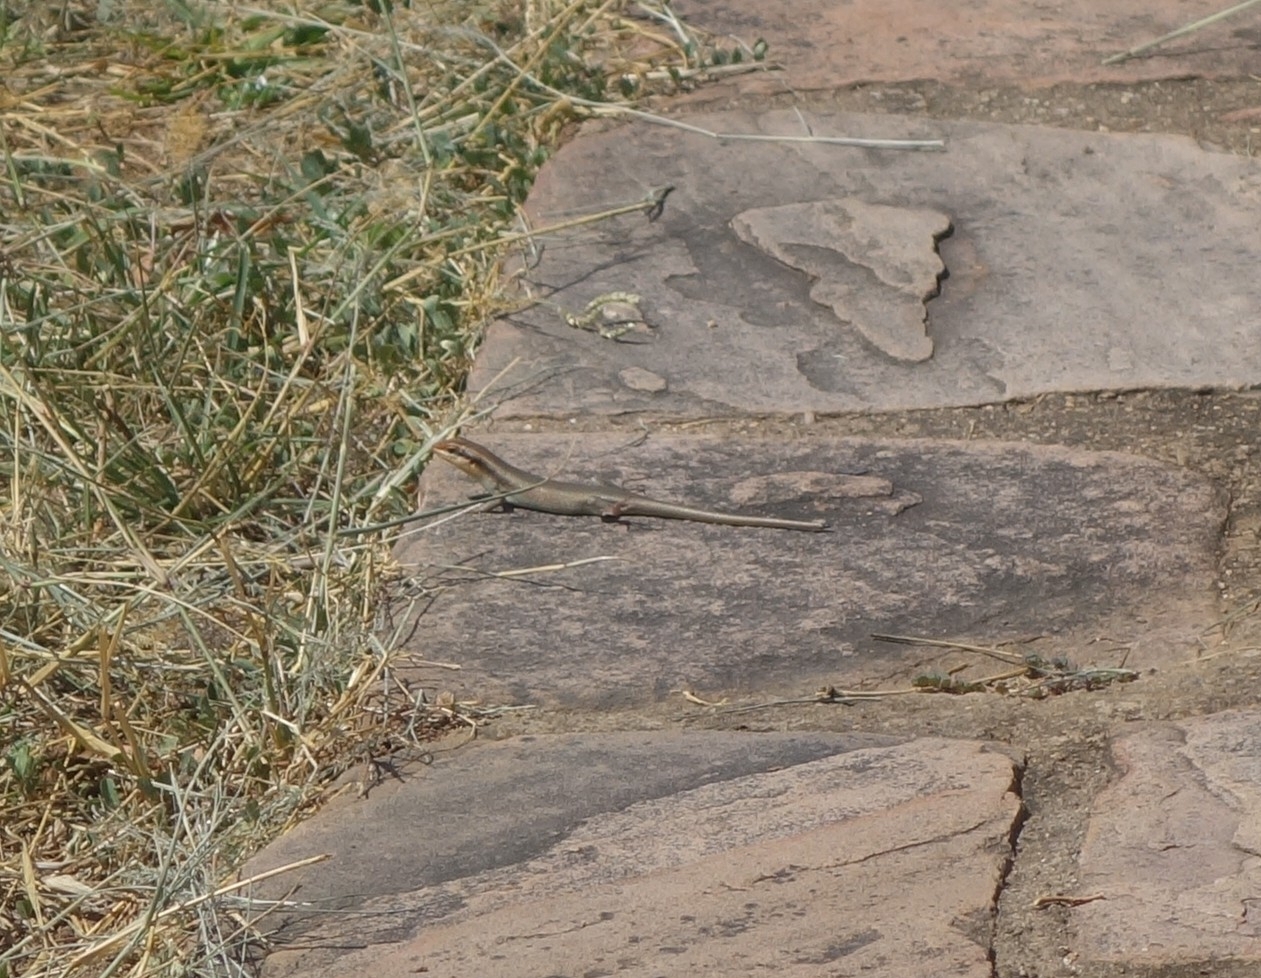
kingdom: Animalia
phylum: Chordata
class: Squamata
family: Scincidae
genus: Trachylepis
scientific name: Trachylepis wahlbergii
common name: Wahlberg’s striped skink
